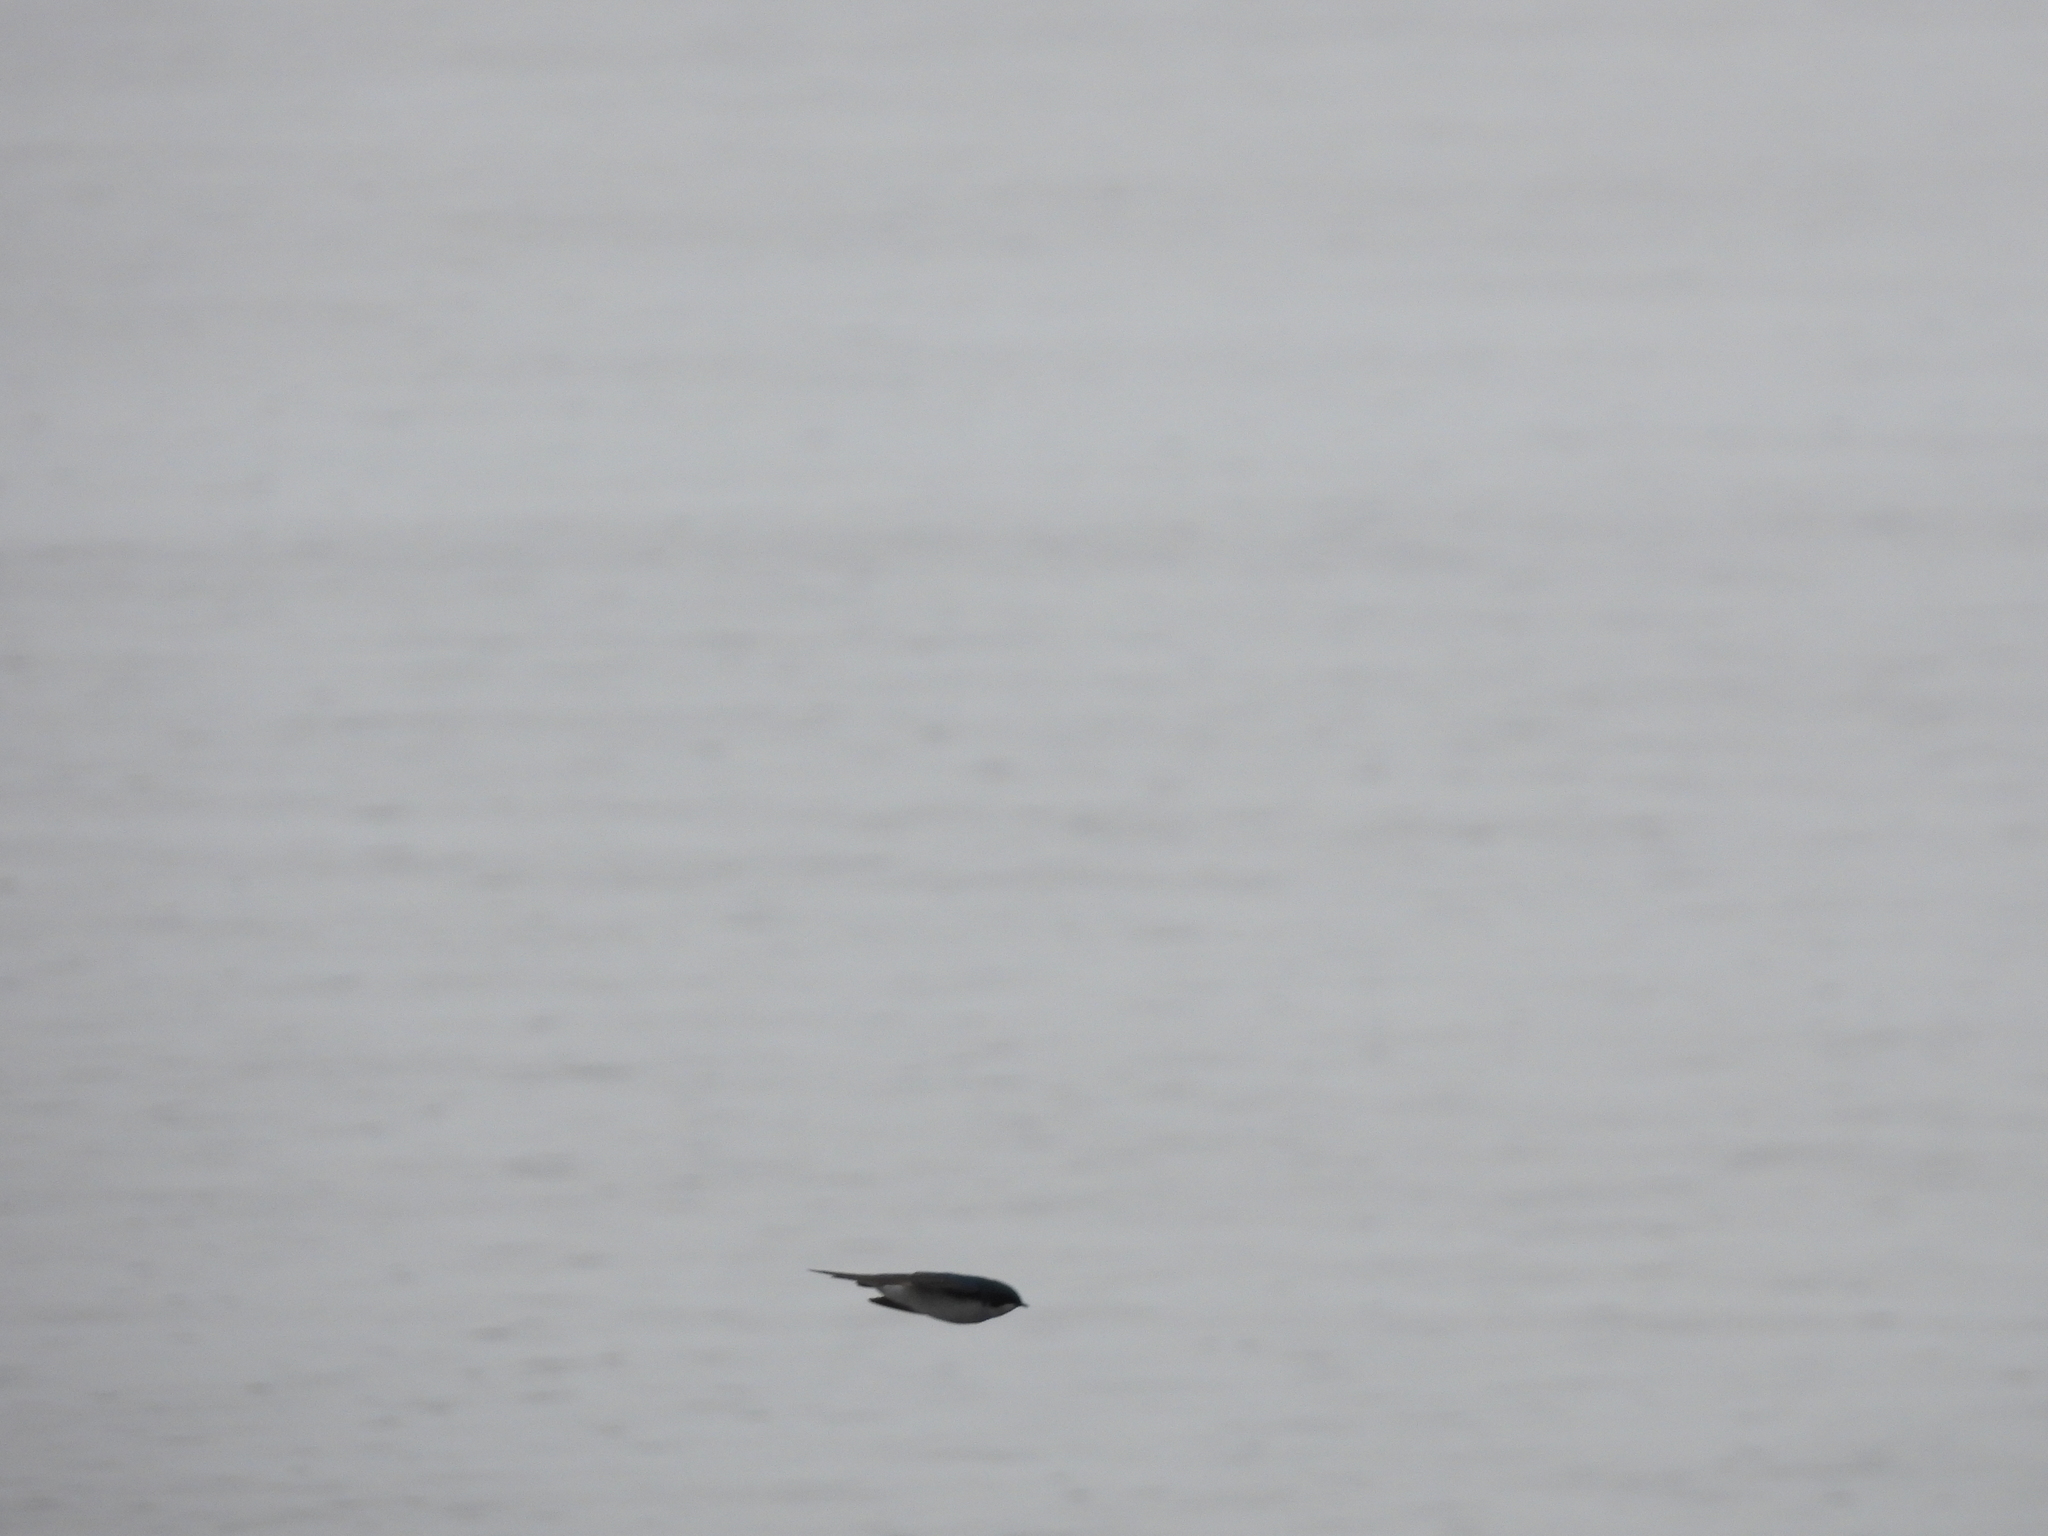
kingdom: Animalia
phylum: Chordata
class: Aves
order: Passeriformes
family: Hirundinidae
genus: Tachycineta
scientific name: Tachycineta bicolor
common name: Tree swallow
